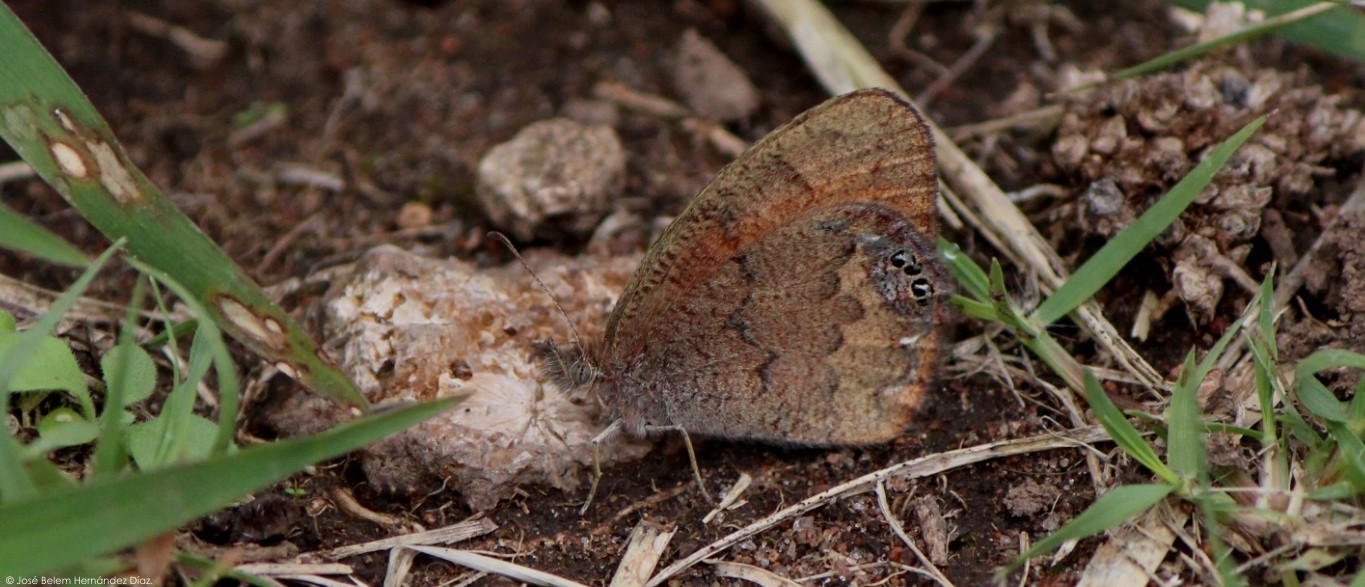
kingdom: Animalia
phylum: Arthropoda
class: Insecta
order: Lepidoptera
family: Nymphalidae
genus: Euptychia
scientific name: Euptychia Cyllopsis pertepida
